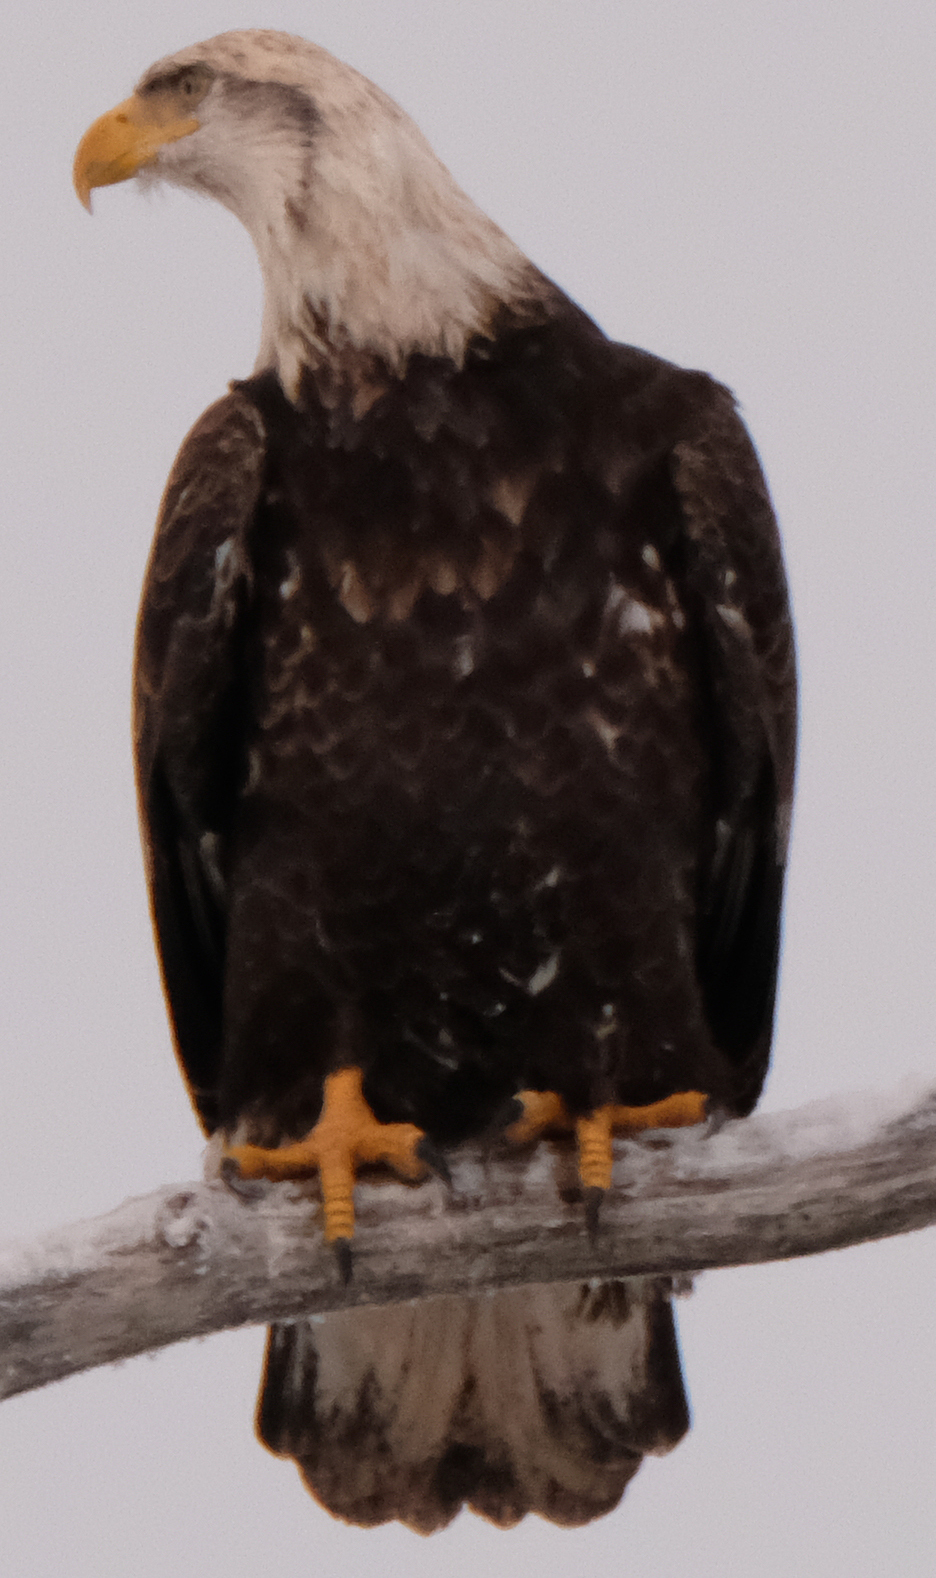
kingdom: Animalia
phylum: Chordata
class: Aves
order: Accipitriformes
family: Accipitridae
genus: Haliaeetus
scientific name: Haliaeetus leucocephalus
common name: Bald eagle
